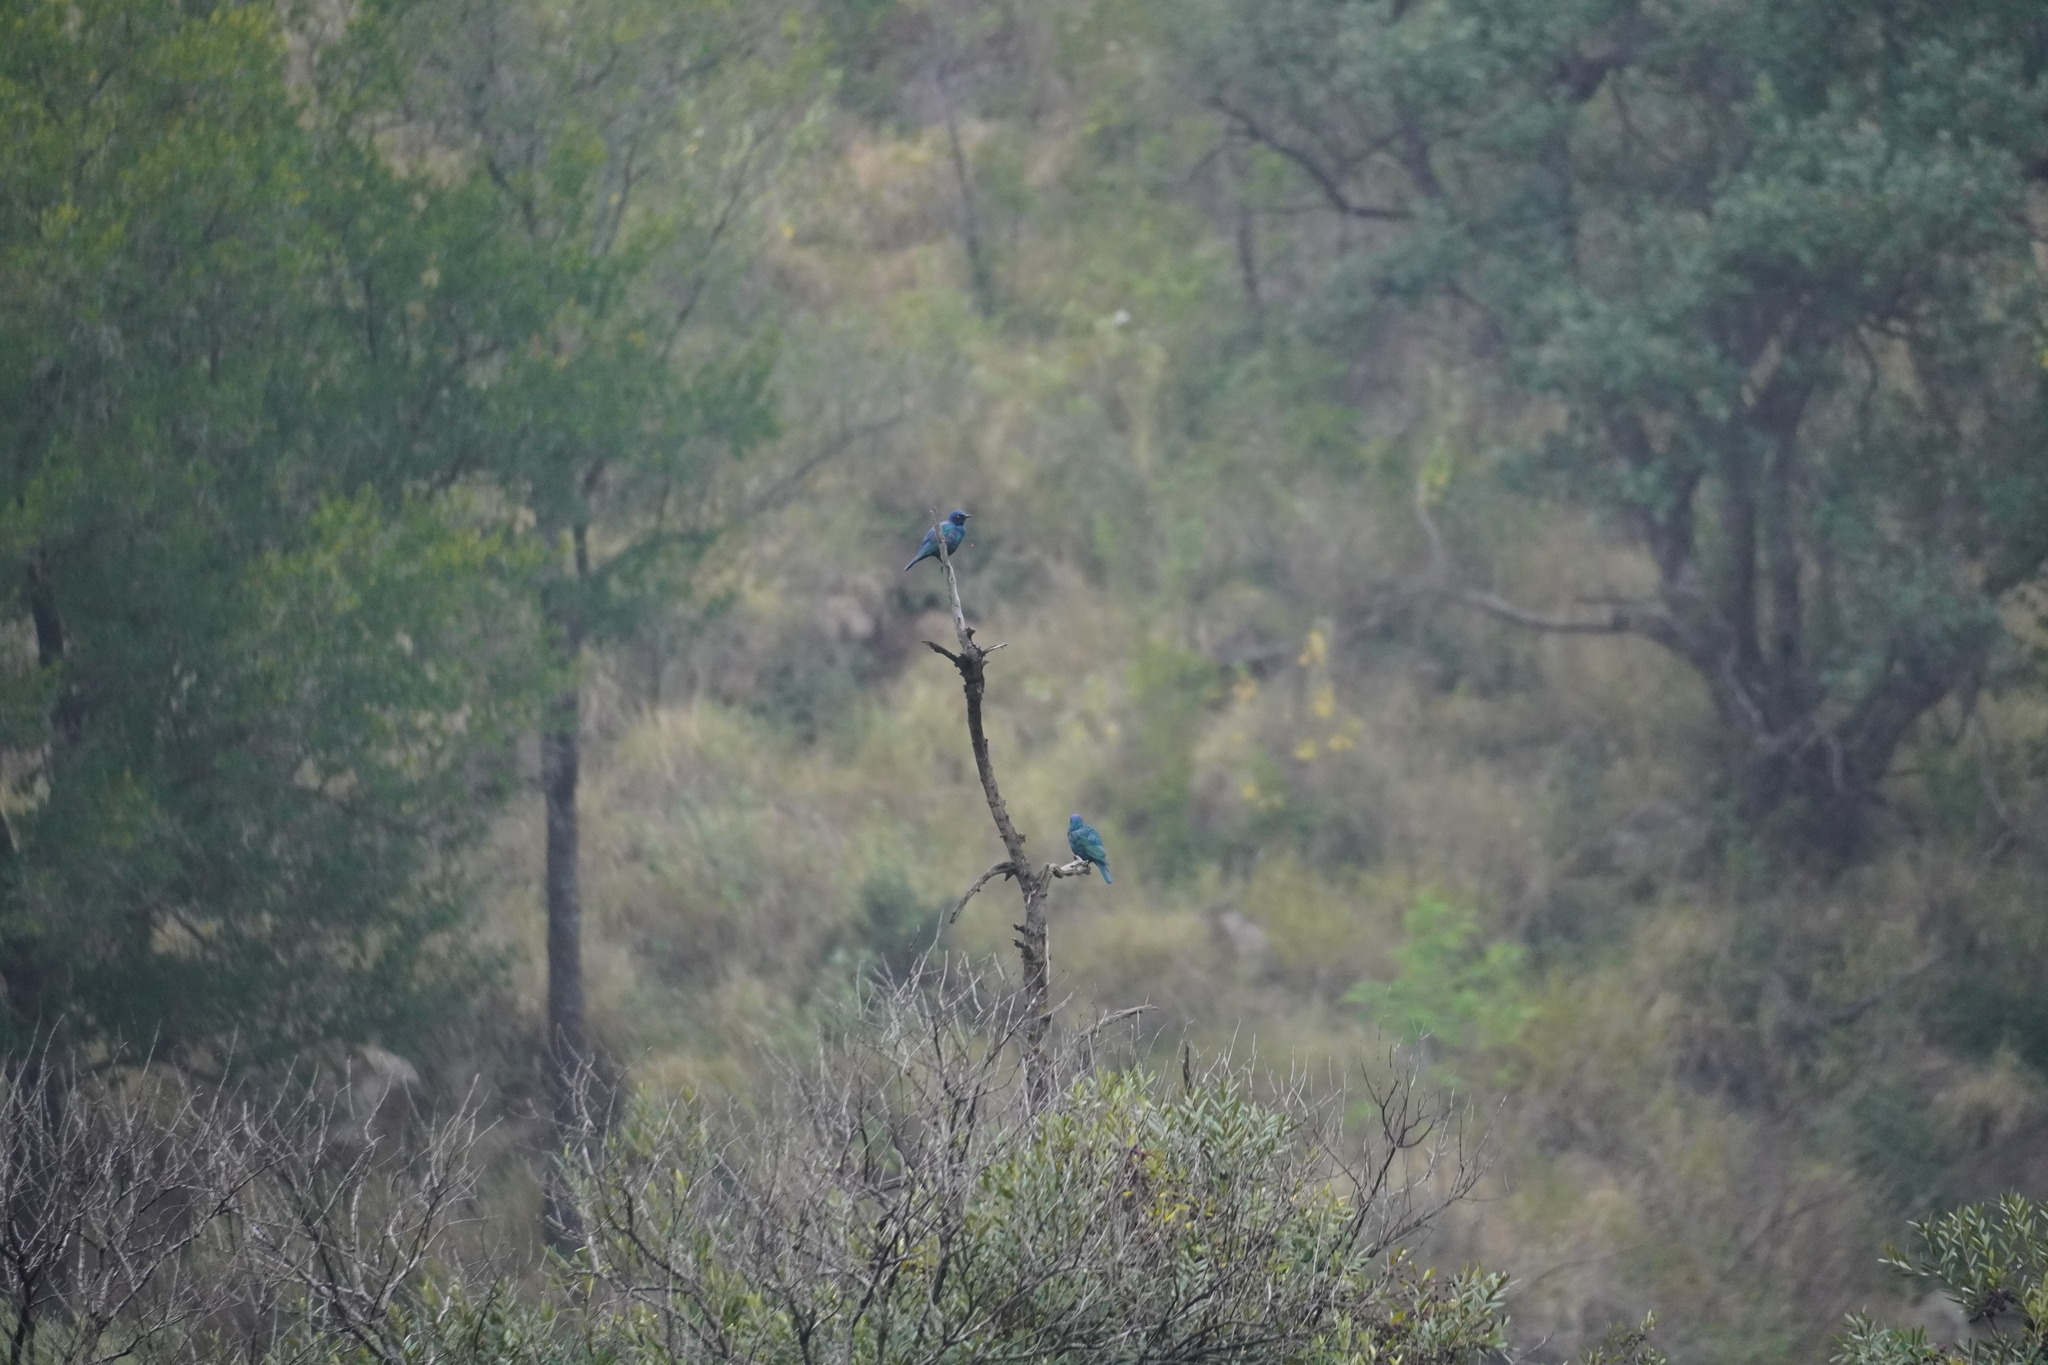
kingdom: Animalia
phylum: Chordata
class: Aves
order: Passeriformes
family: Sturnidae
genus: Lamprotornis
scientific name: Lamprotornis nitens
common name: Cape starling
